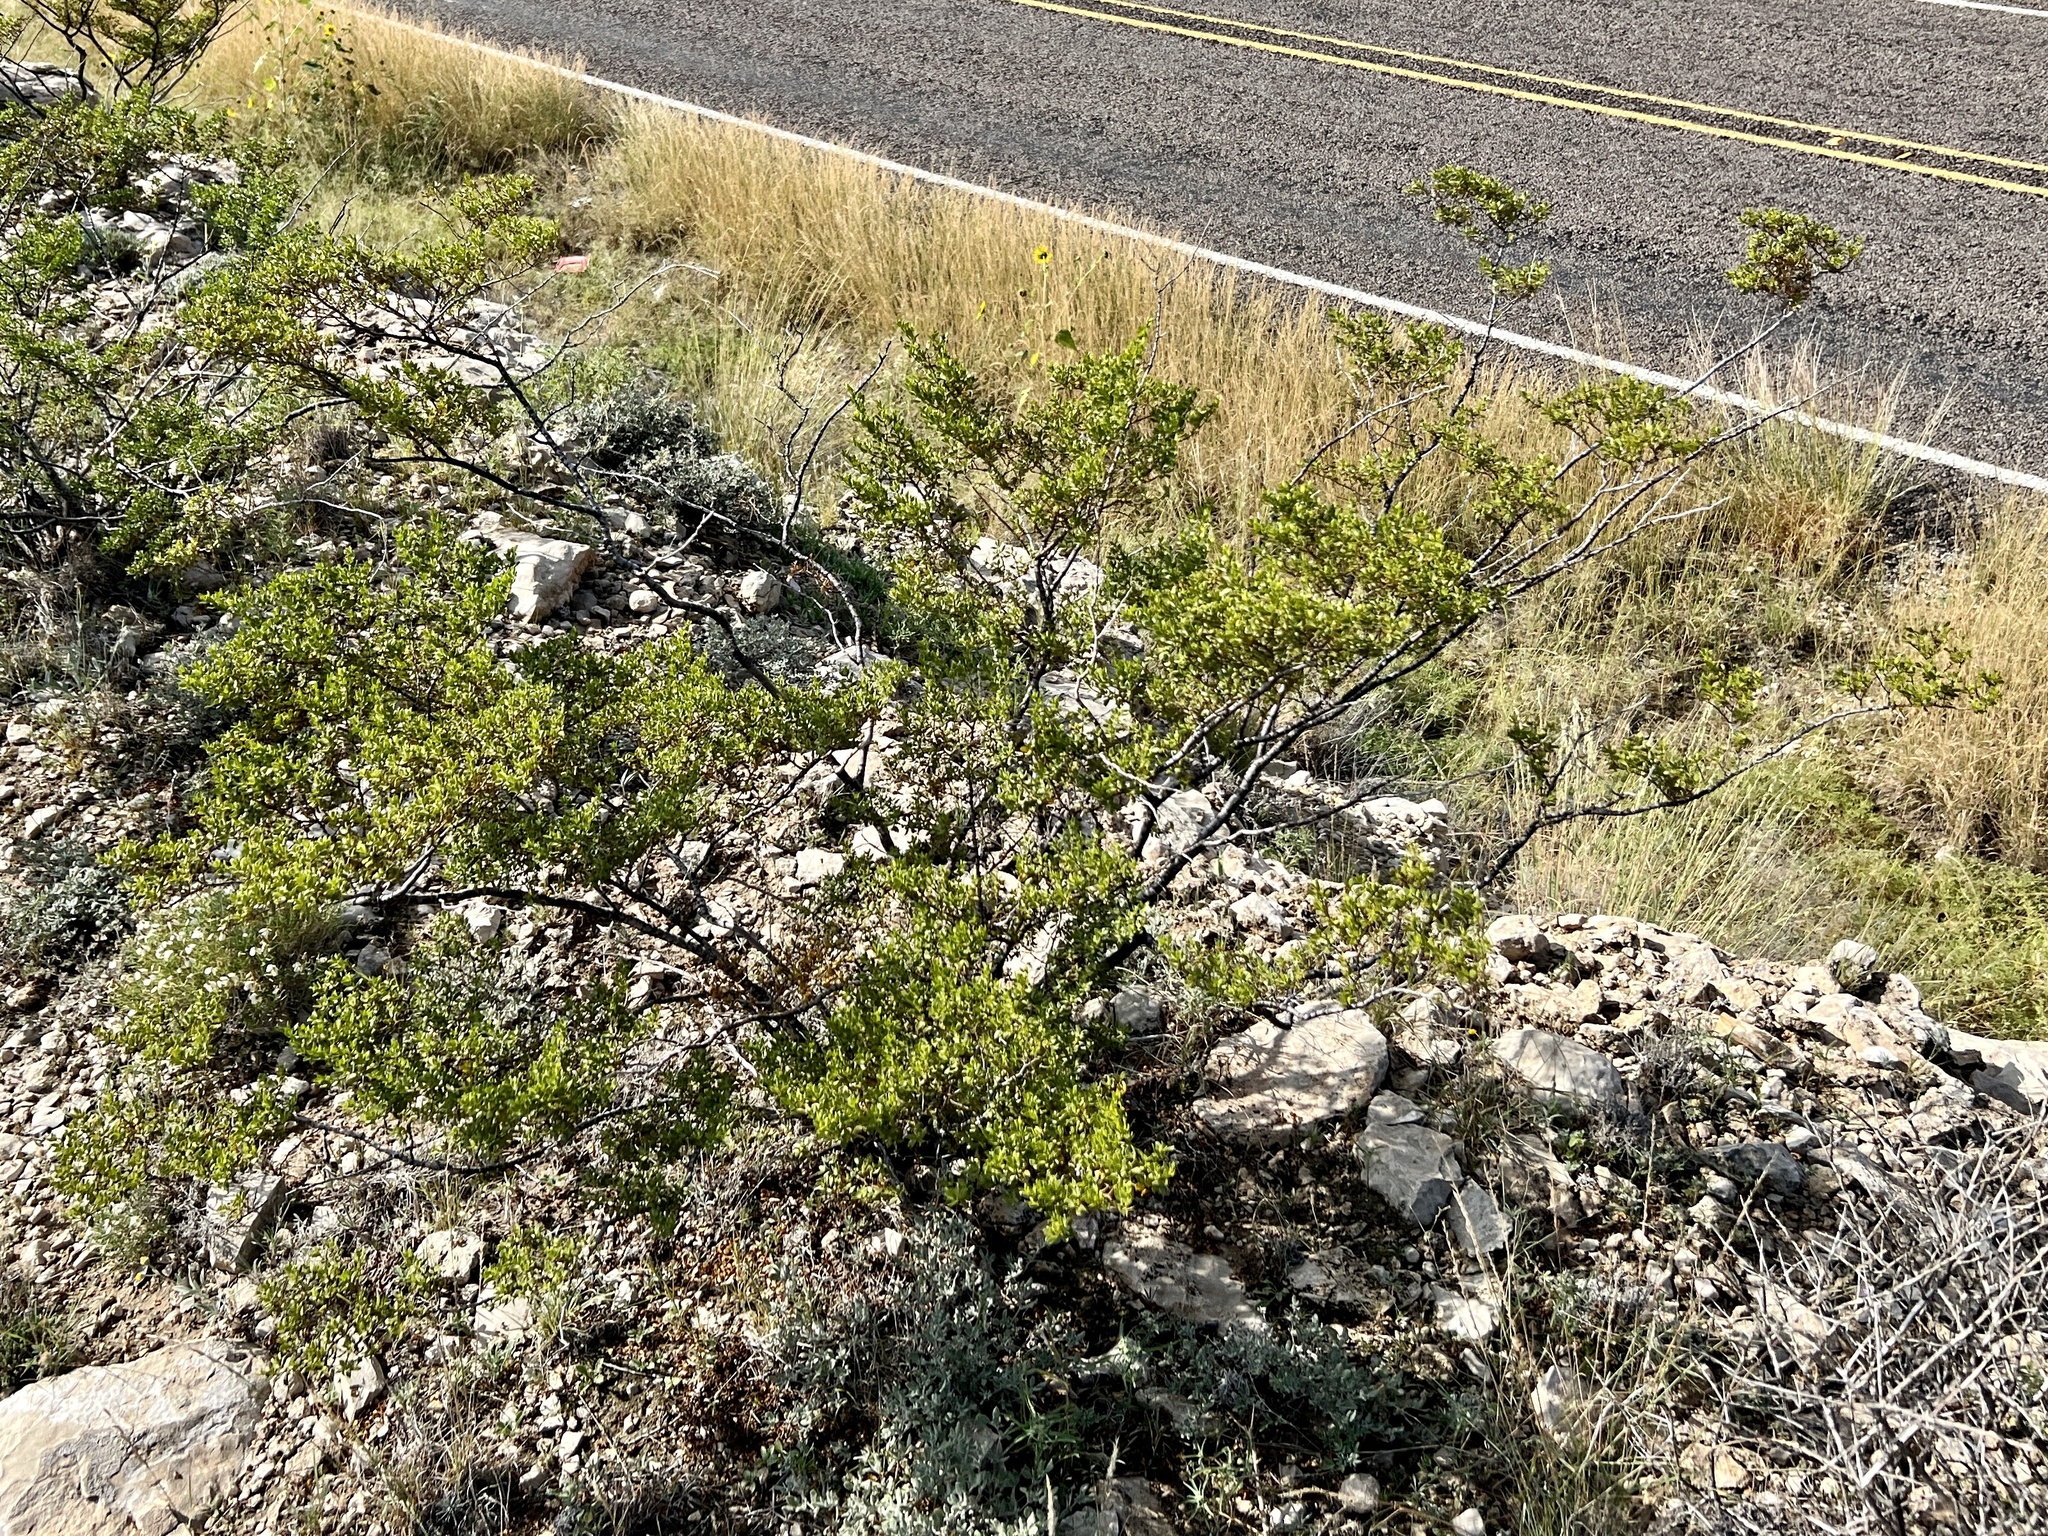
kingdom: Plantae
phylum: Tracheophyta
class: Magnoliopsida
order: Zygophyllales
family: Zygophyllaceae
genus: Larrea
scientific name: Larrea tridentata
